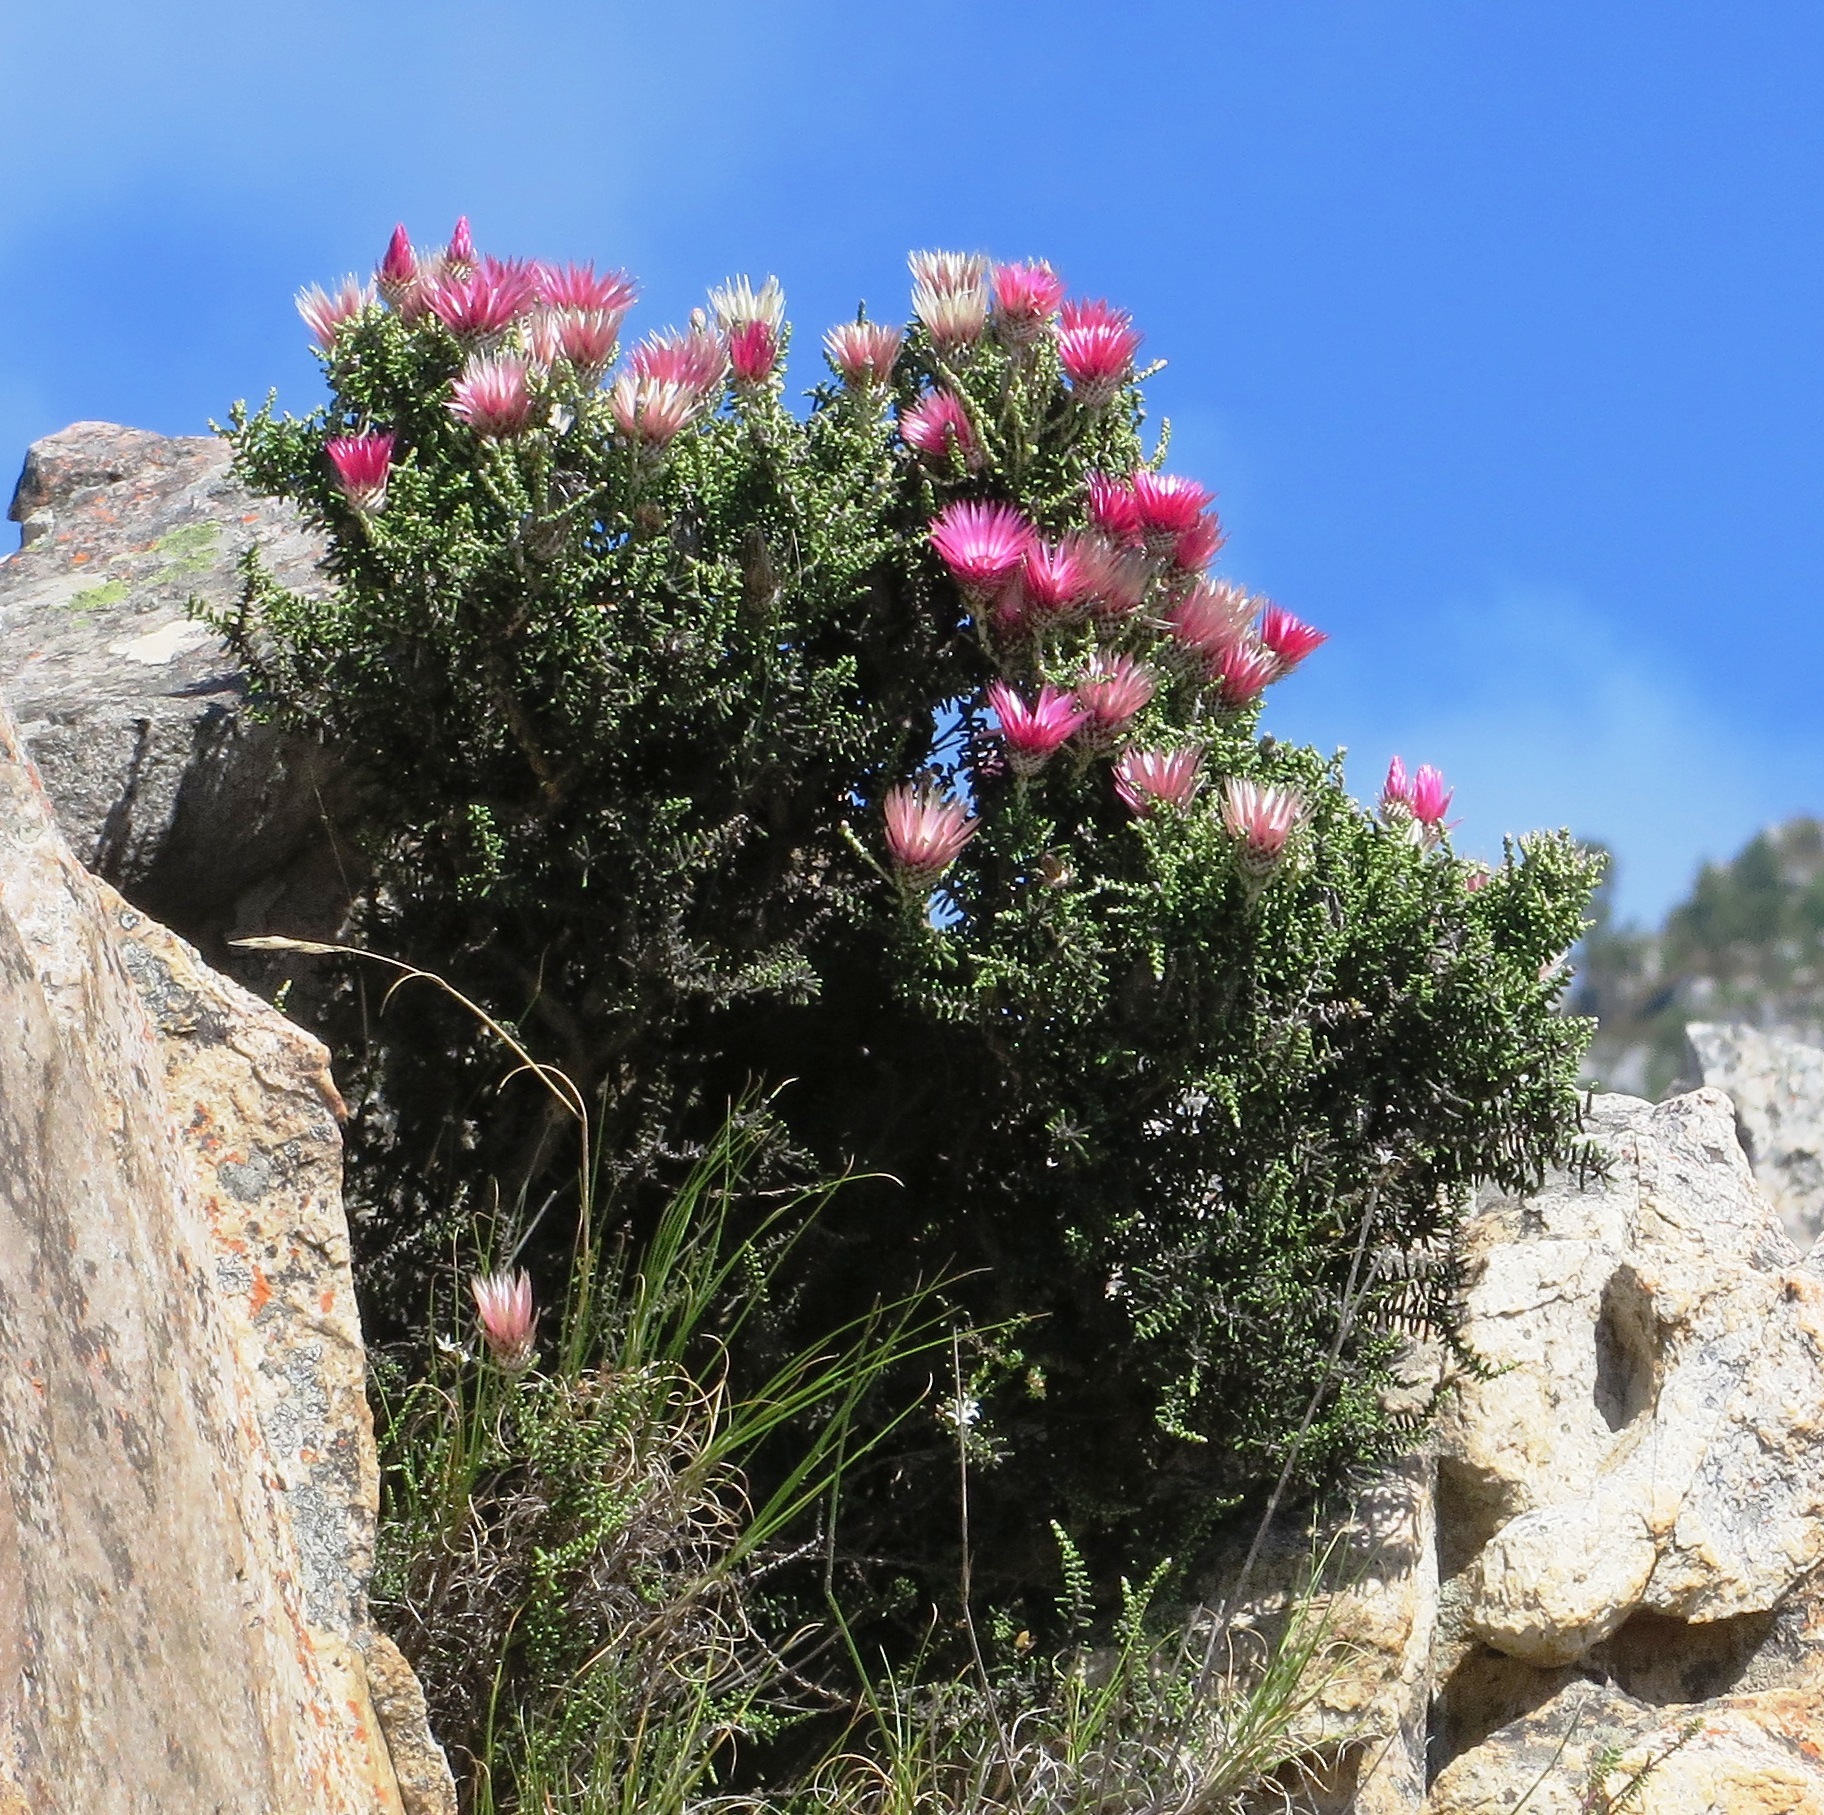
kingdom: Plantae
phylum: Tracheophyta
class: Magnoliopsida
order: Asterales
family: Asteraceae
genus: Phaenocoma
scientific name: Phaenocoma prolifera
